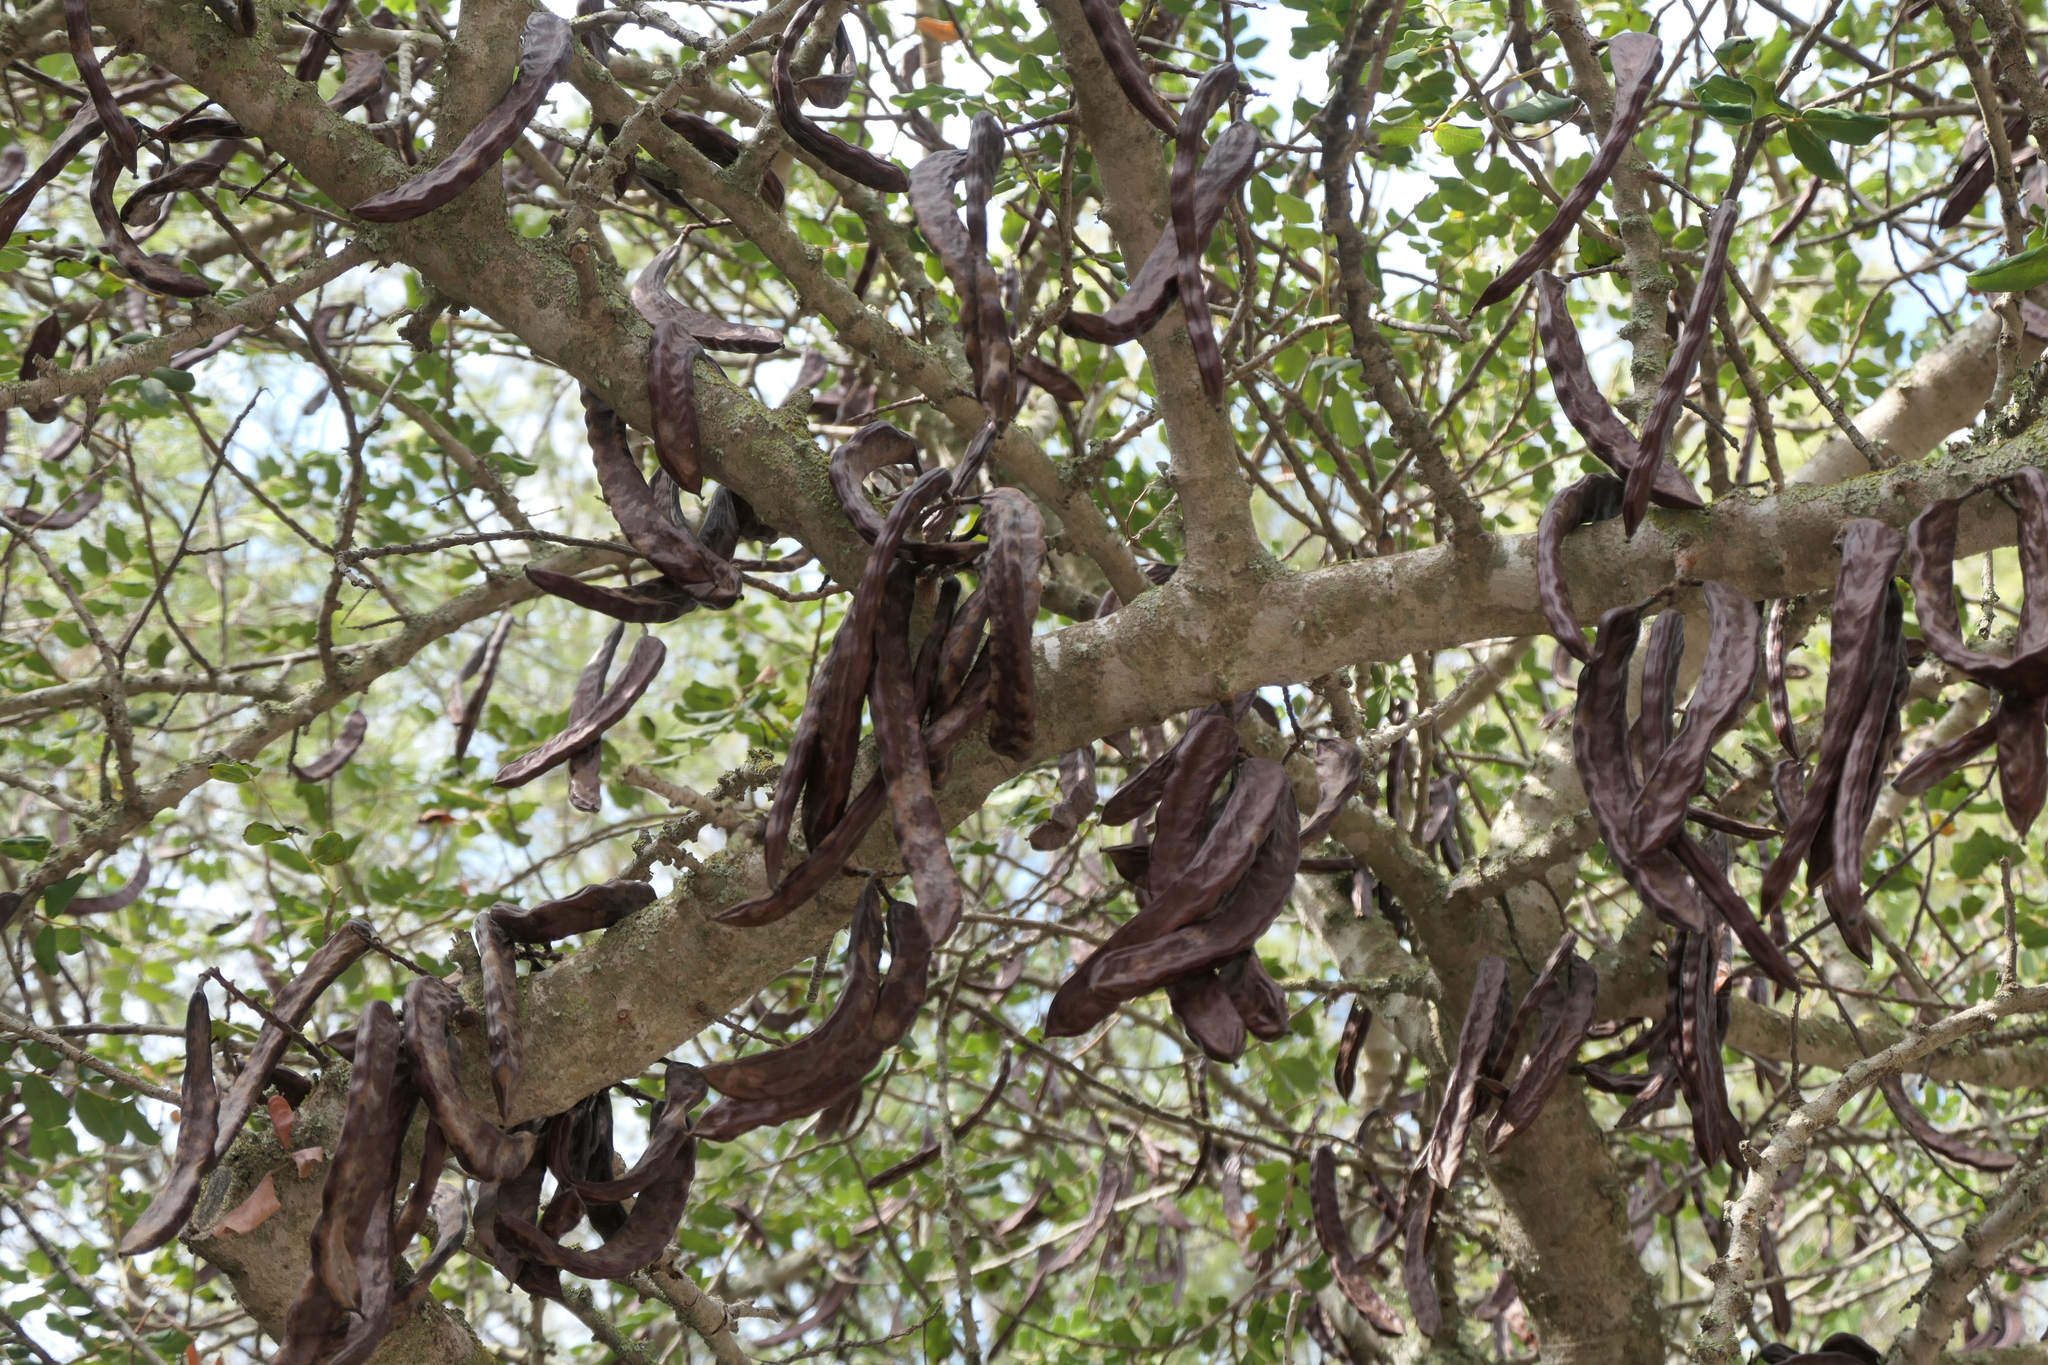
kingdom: Plantae
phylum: Tracheophyta
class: Magnoliopsida
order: Fabales
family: Fabaceae
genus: Ceratonia
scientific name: Ceratonia siliqua
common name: Carob
